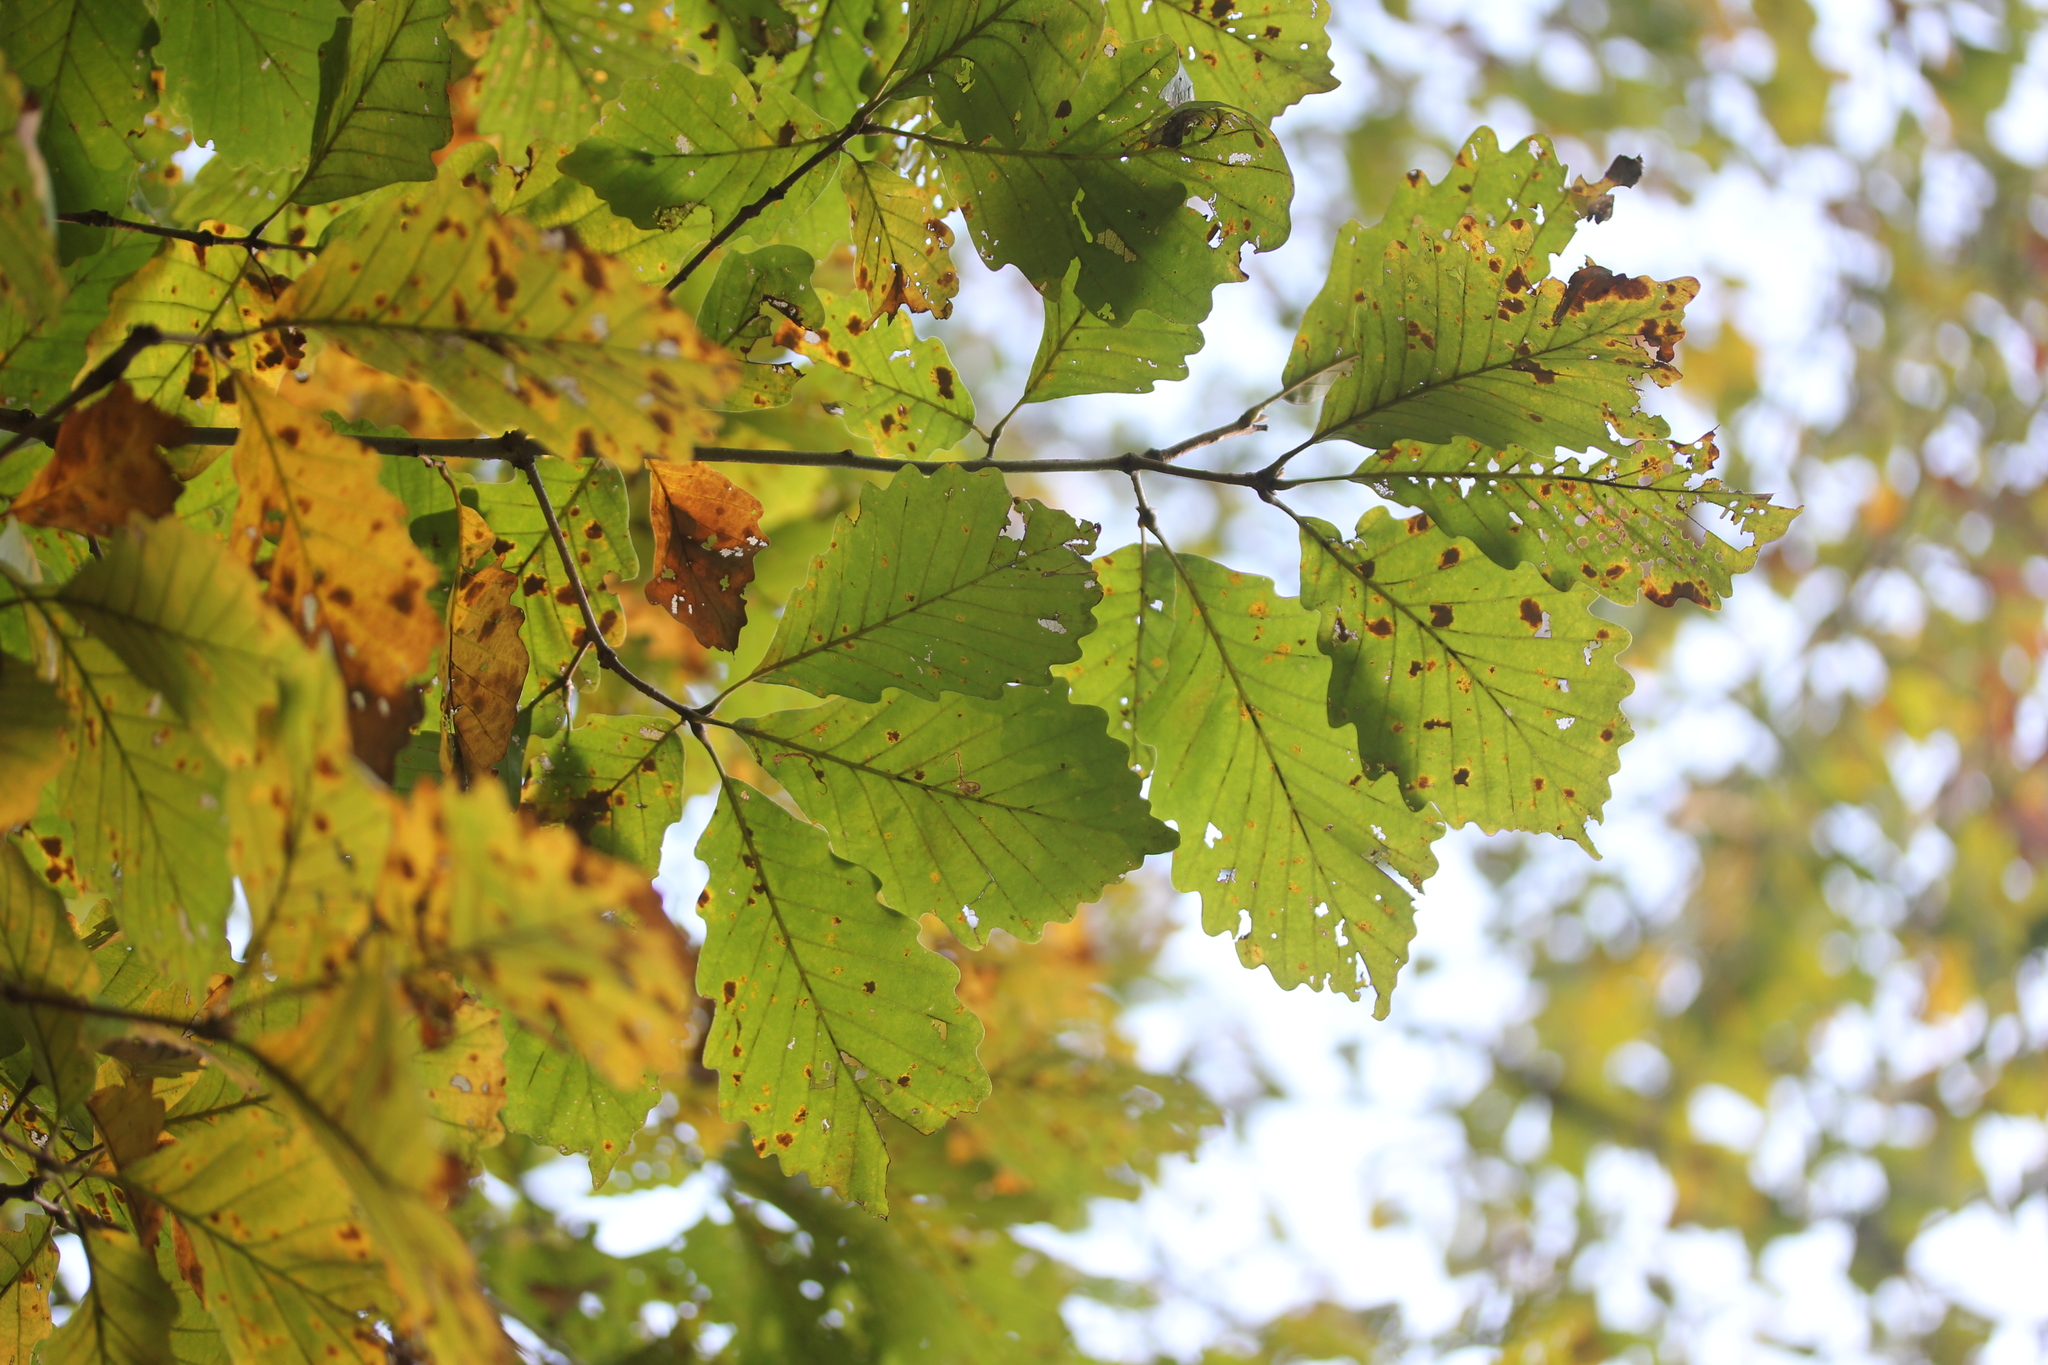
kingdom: Plantae
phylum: Tracheophyta
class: Magnoliopsida
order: Fagales
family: Fagaceae
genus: Quercus
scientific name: Quercus montana
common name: Chestnut oak
